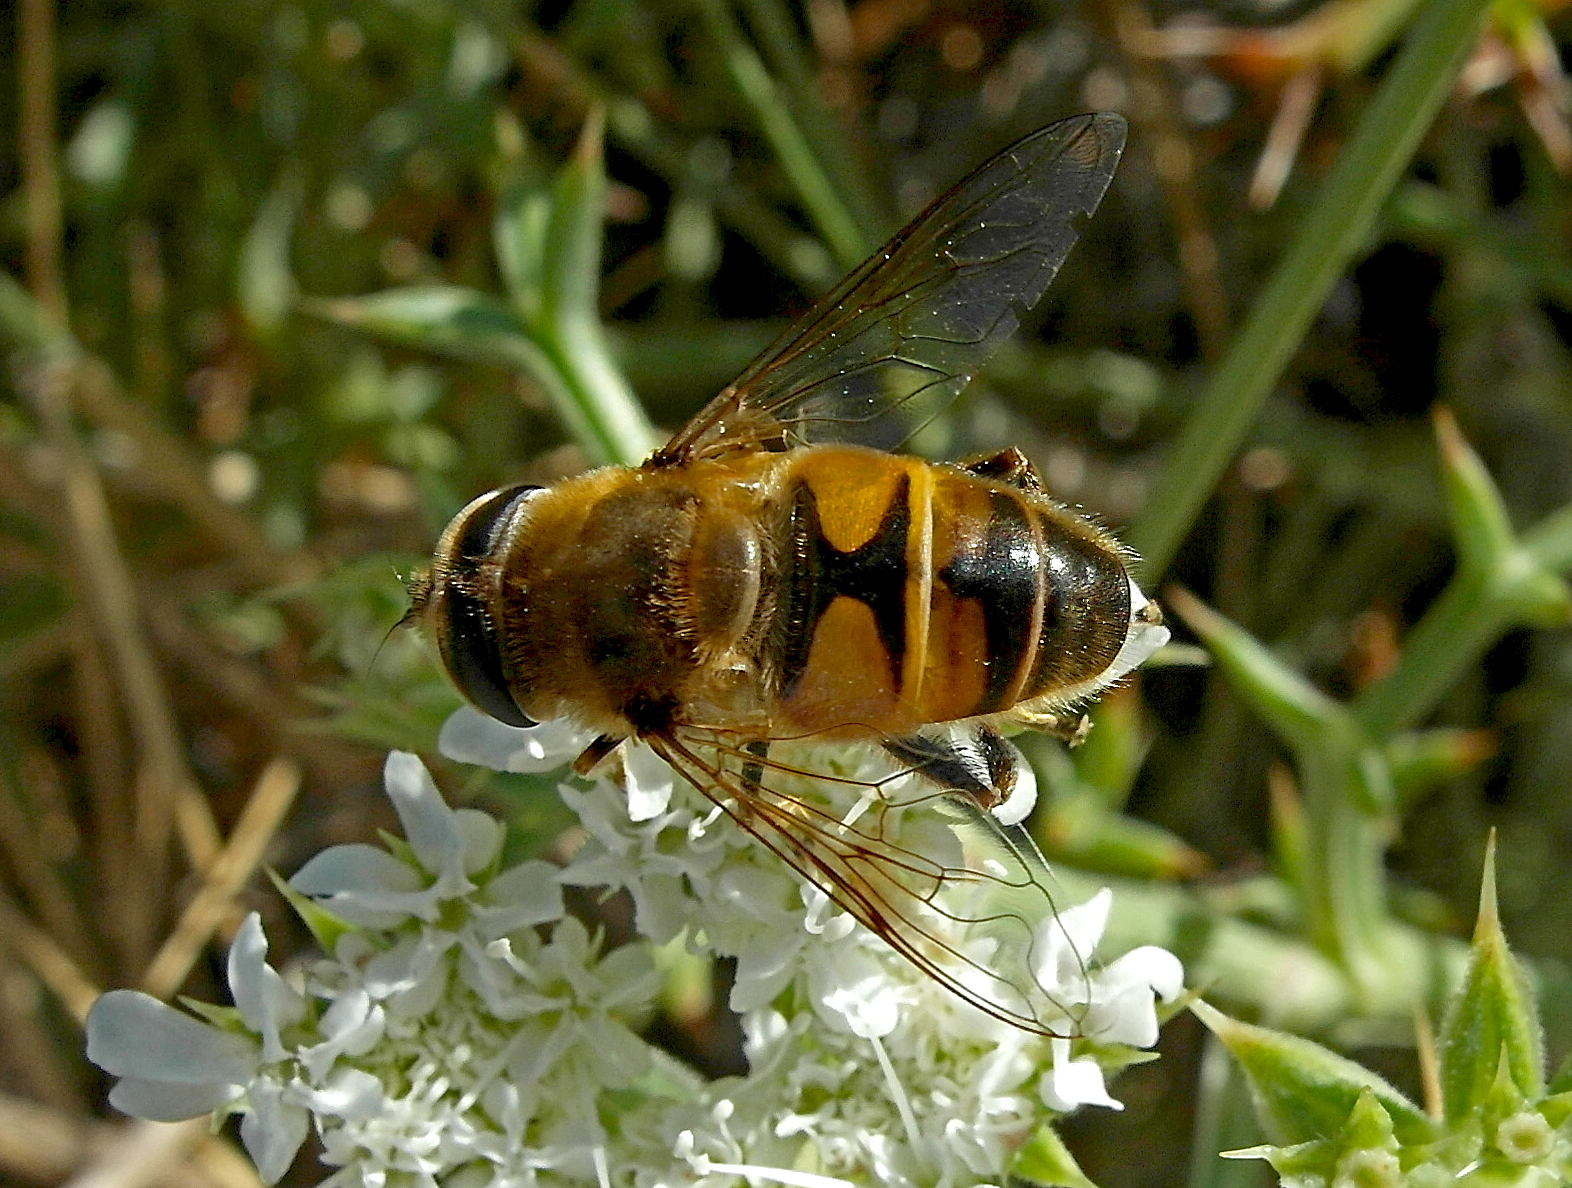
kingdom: Animalia
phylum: Arthropoda
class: Insecta
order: Diptera
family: Syrphidae
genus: Eristalis
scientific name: Eristalis tenax
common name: Drone fly
